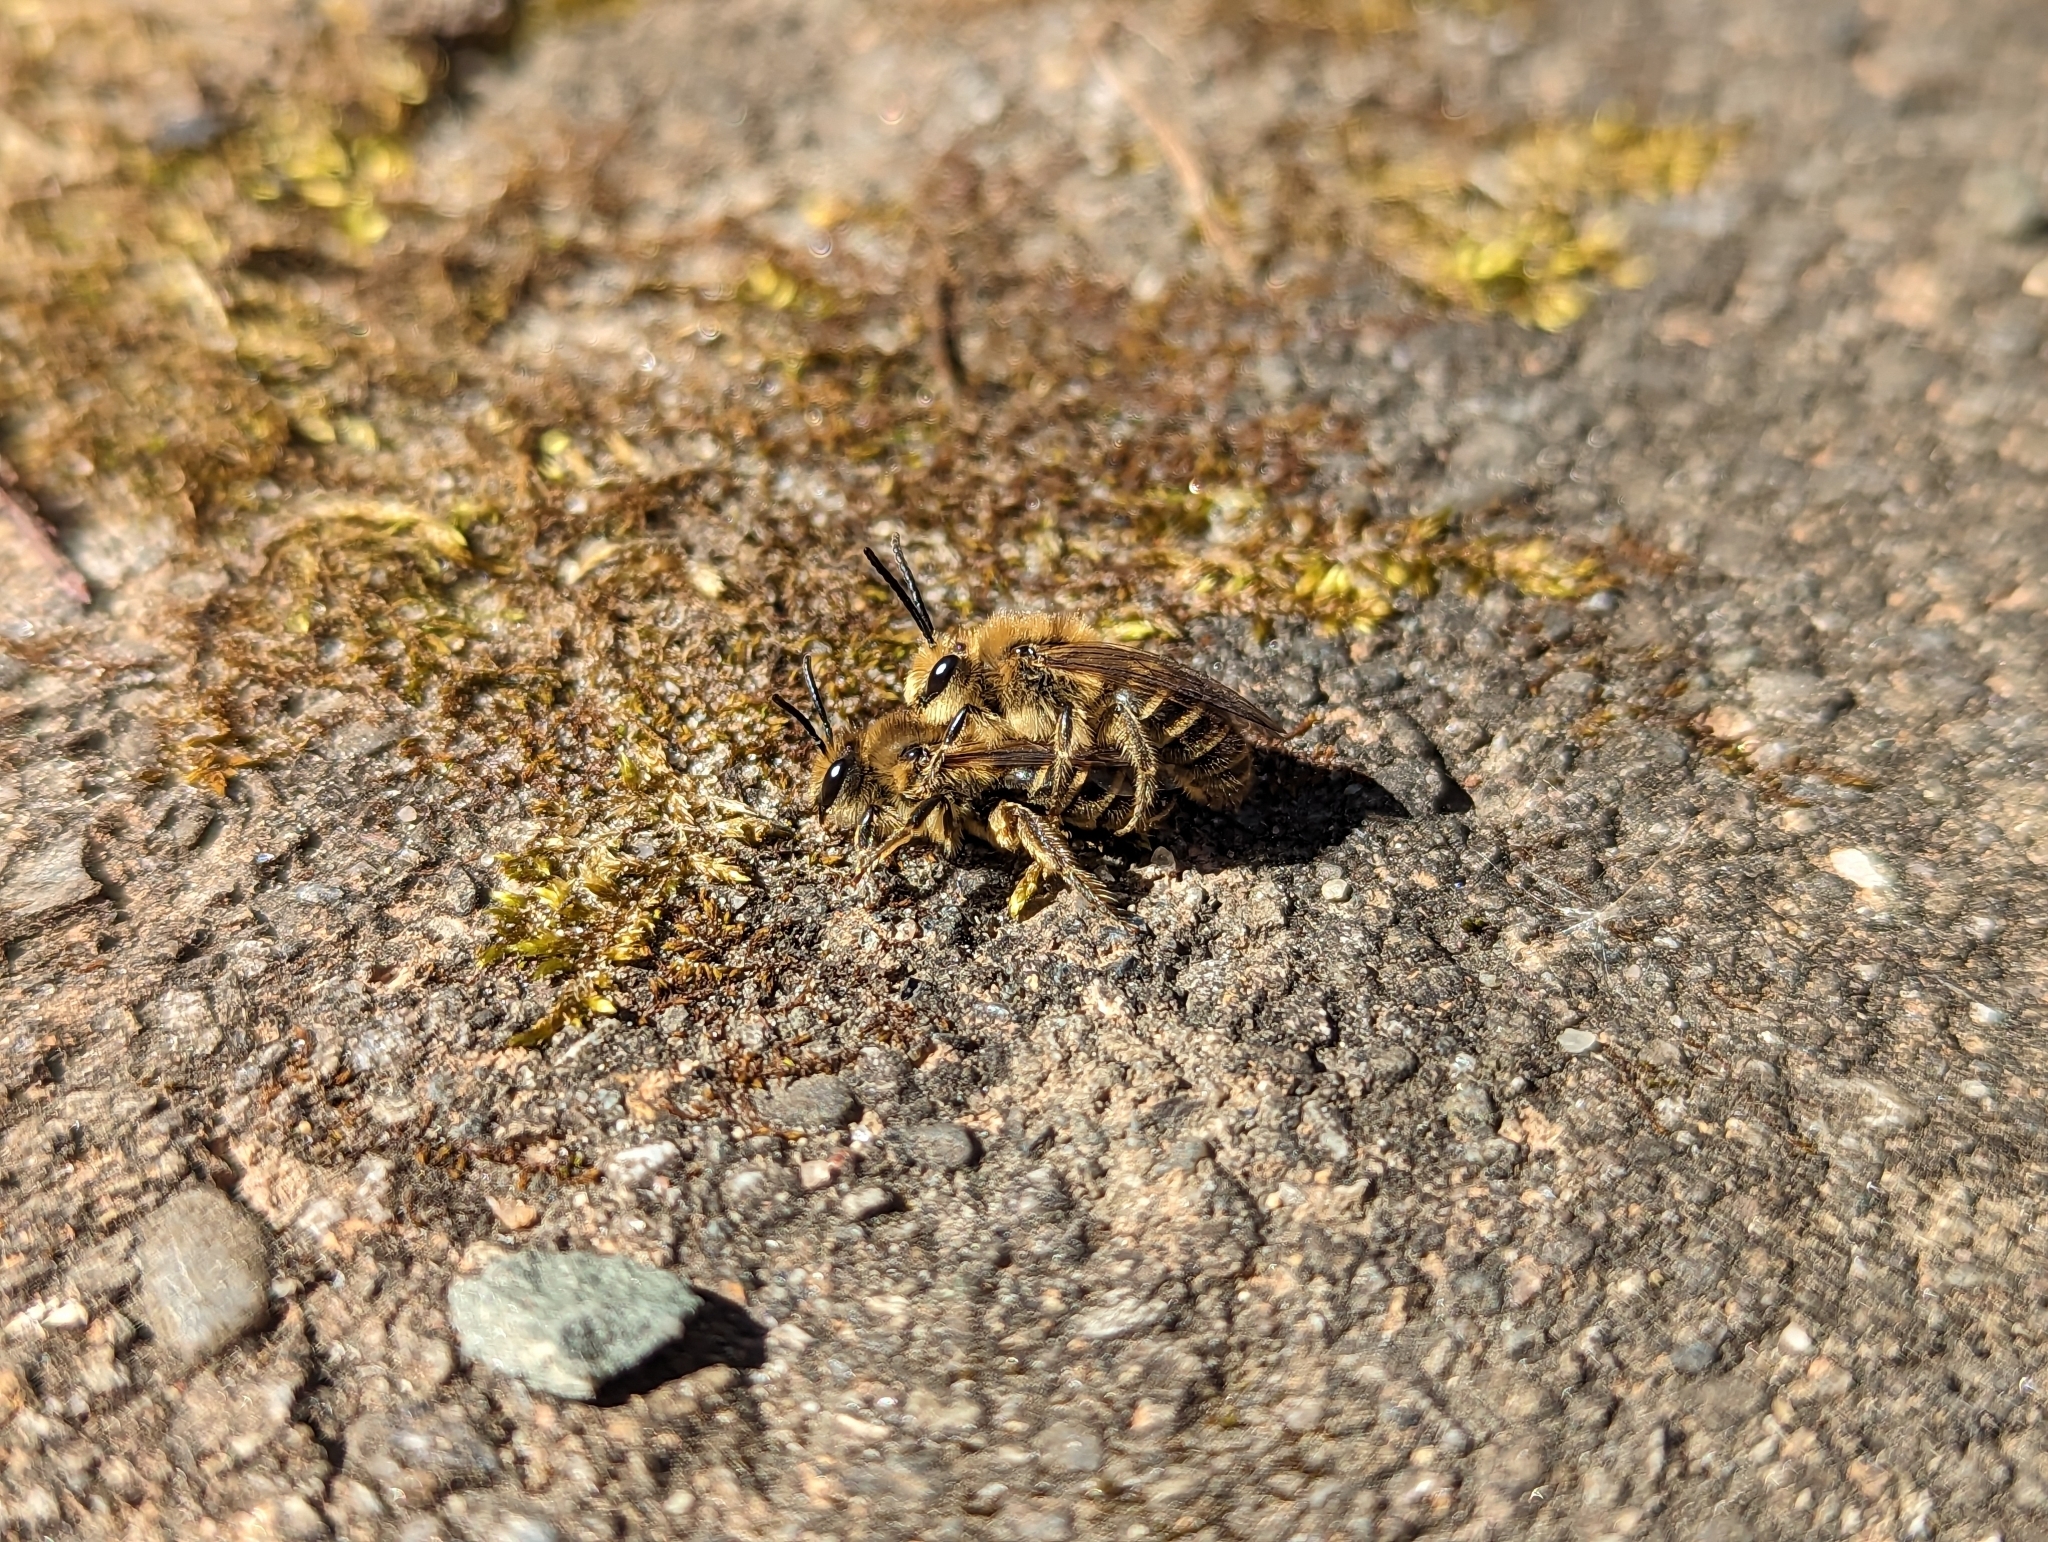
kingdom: Animalia
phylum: Arthropoda
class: Insecta
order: Hymenoptera
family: Colletidae
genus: Colletes
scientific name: Colletes inaequalis
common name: Unequal cellophane bee
